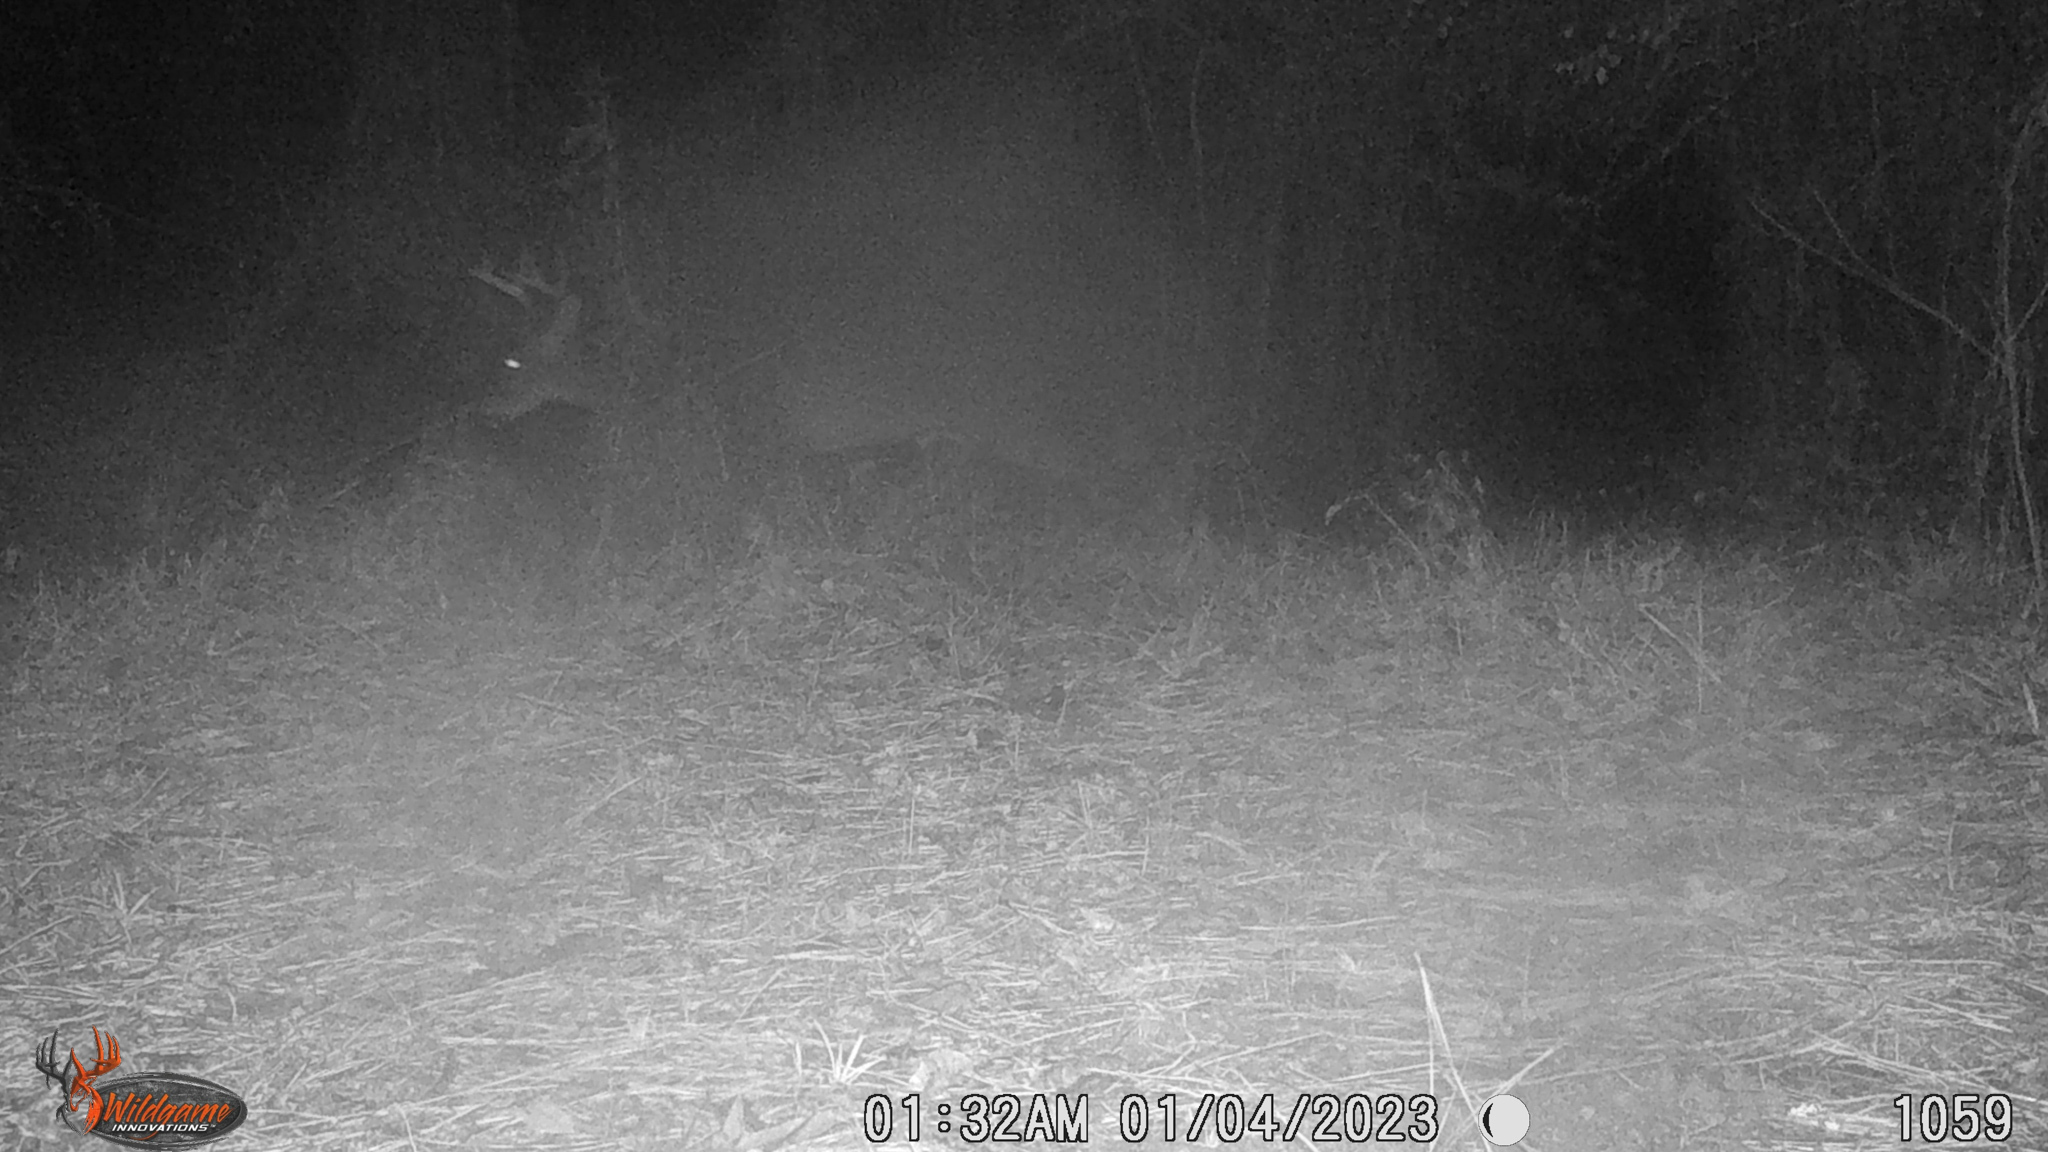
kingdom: Animalia
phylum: Chordata
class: Mammalia
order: Artiodactyla
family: Cervidae
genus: Odocoileus
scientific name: Odocoileus virginianus
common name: White-tailed deer
